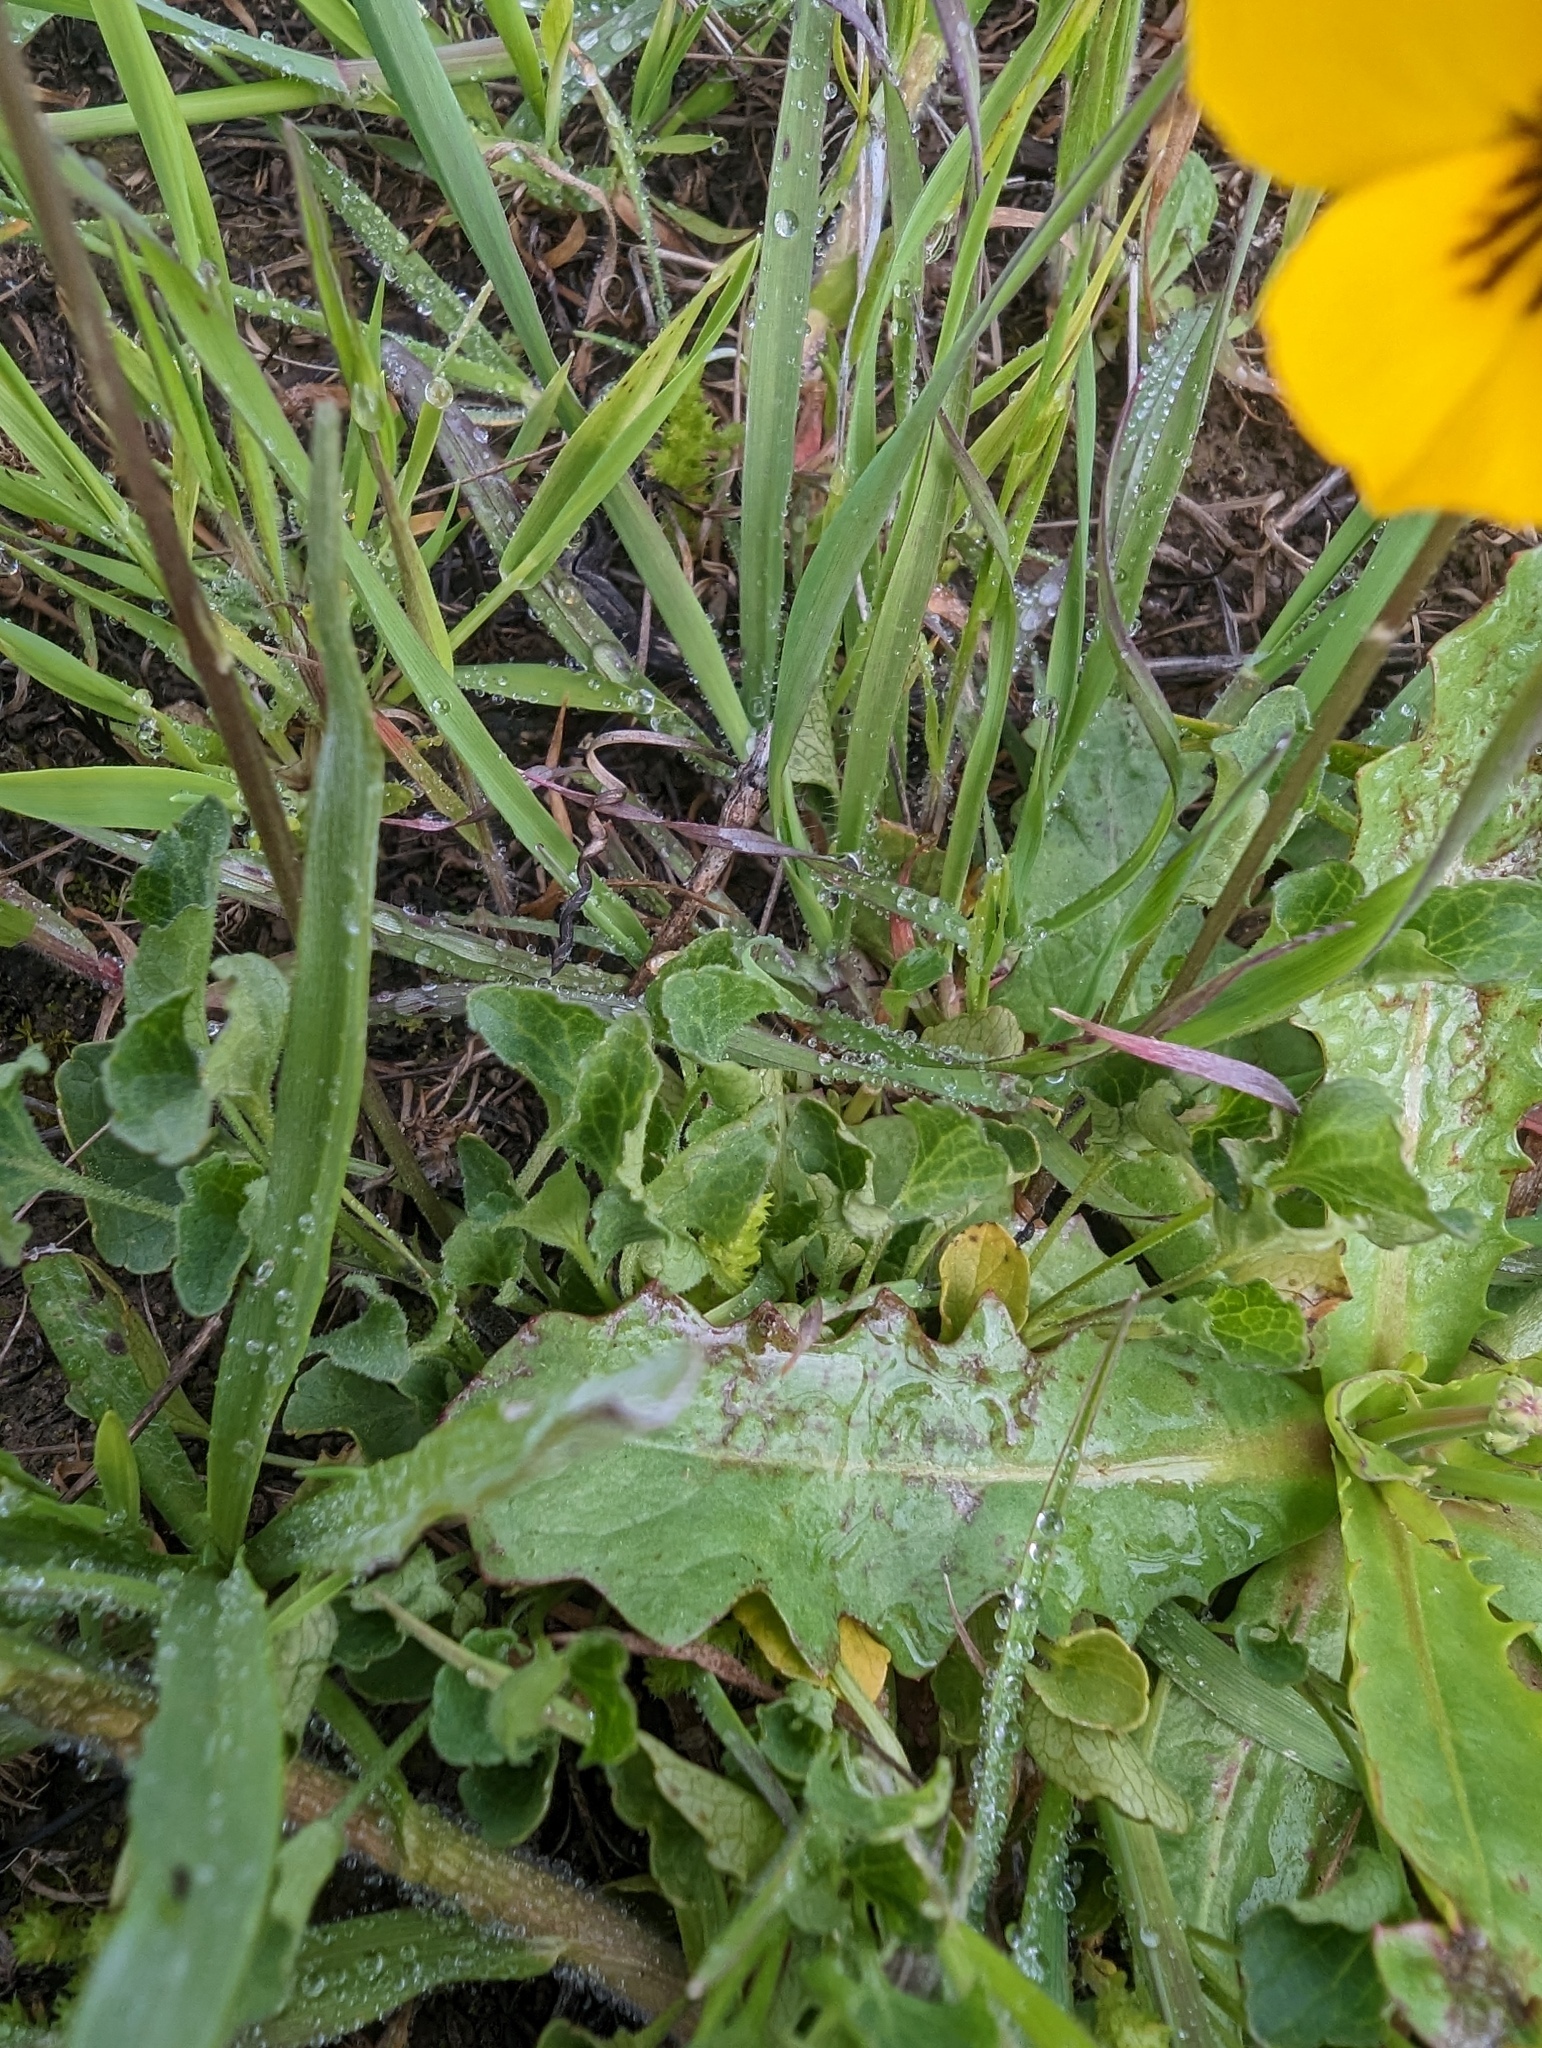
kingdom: Plantae
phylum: Tracheophyta
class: Magnoliopsida
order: Malpighiales
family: Violaceae
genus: Viola
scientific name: Viola pedunculata
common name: California golden violet
